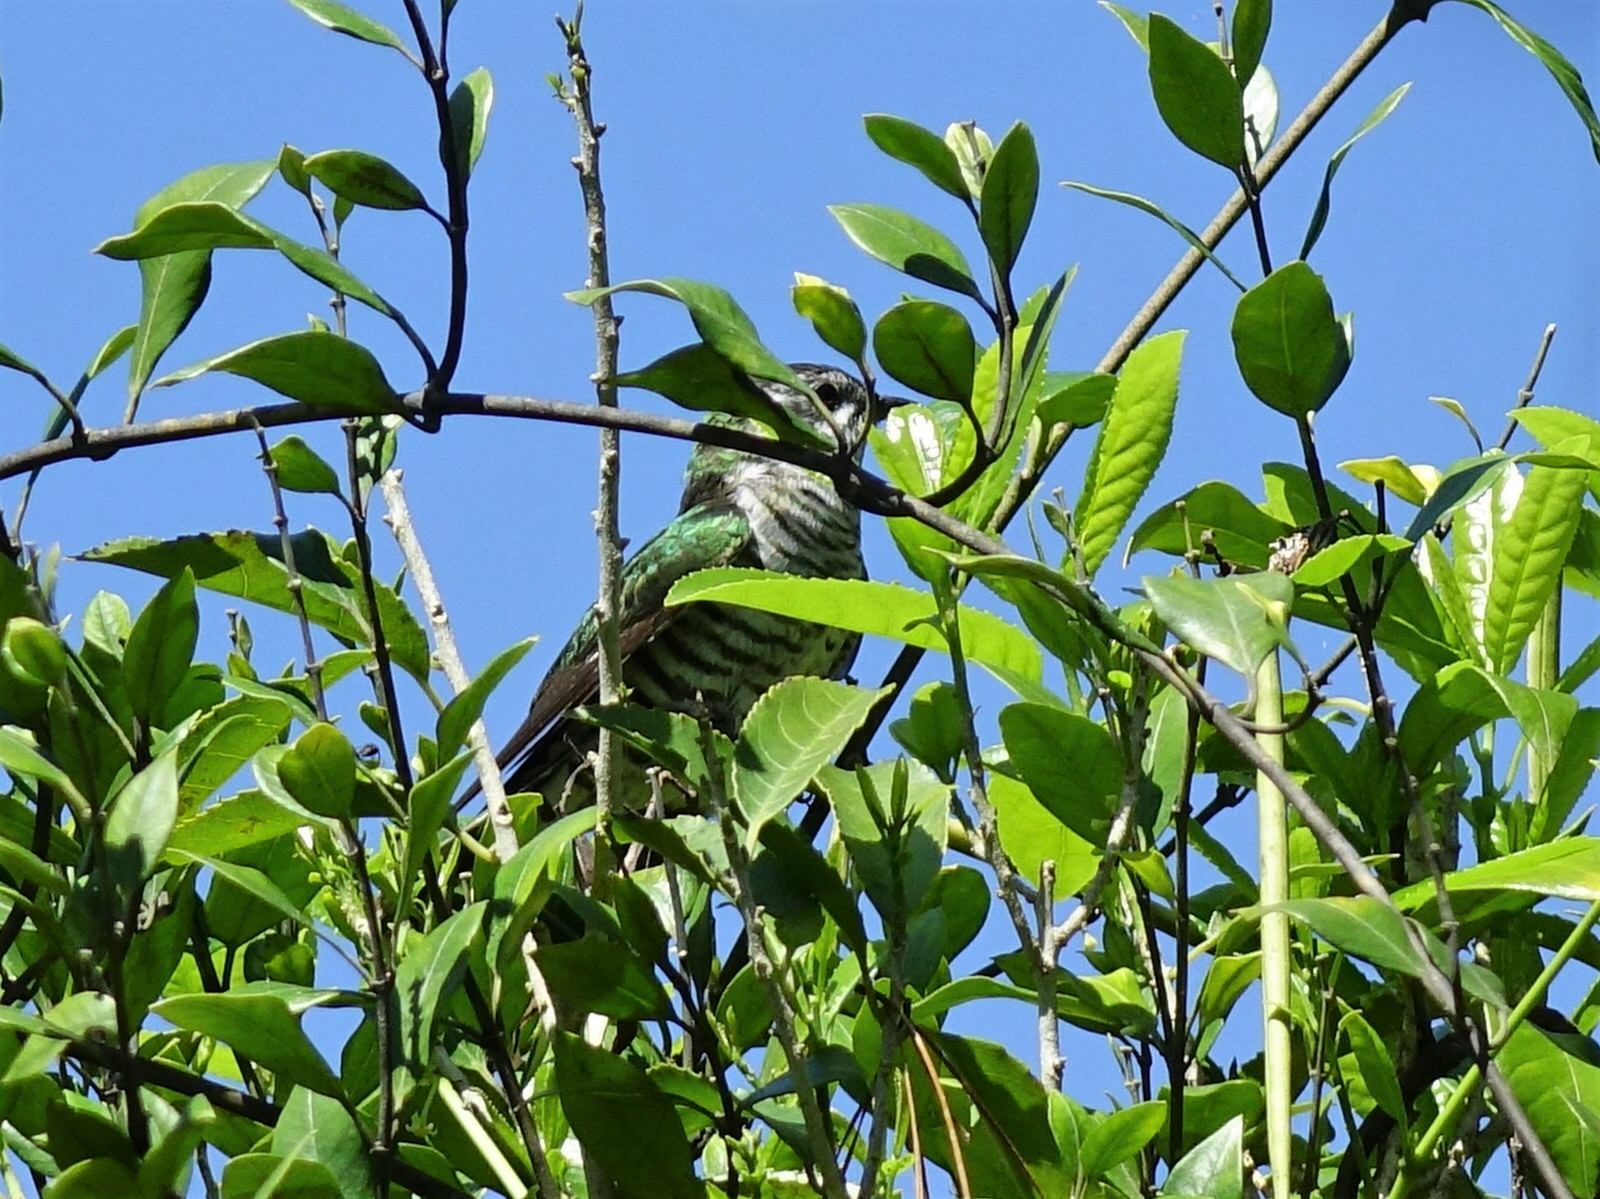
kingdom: Animalia
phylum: Chordata
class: Aves
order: Cuculiformes
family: Cuculidae
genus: Chrysococcyx
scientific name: Chrysococcyx lucidus
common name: Shining bronze cuckoo
